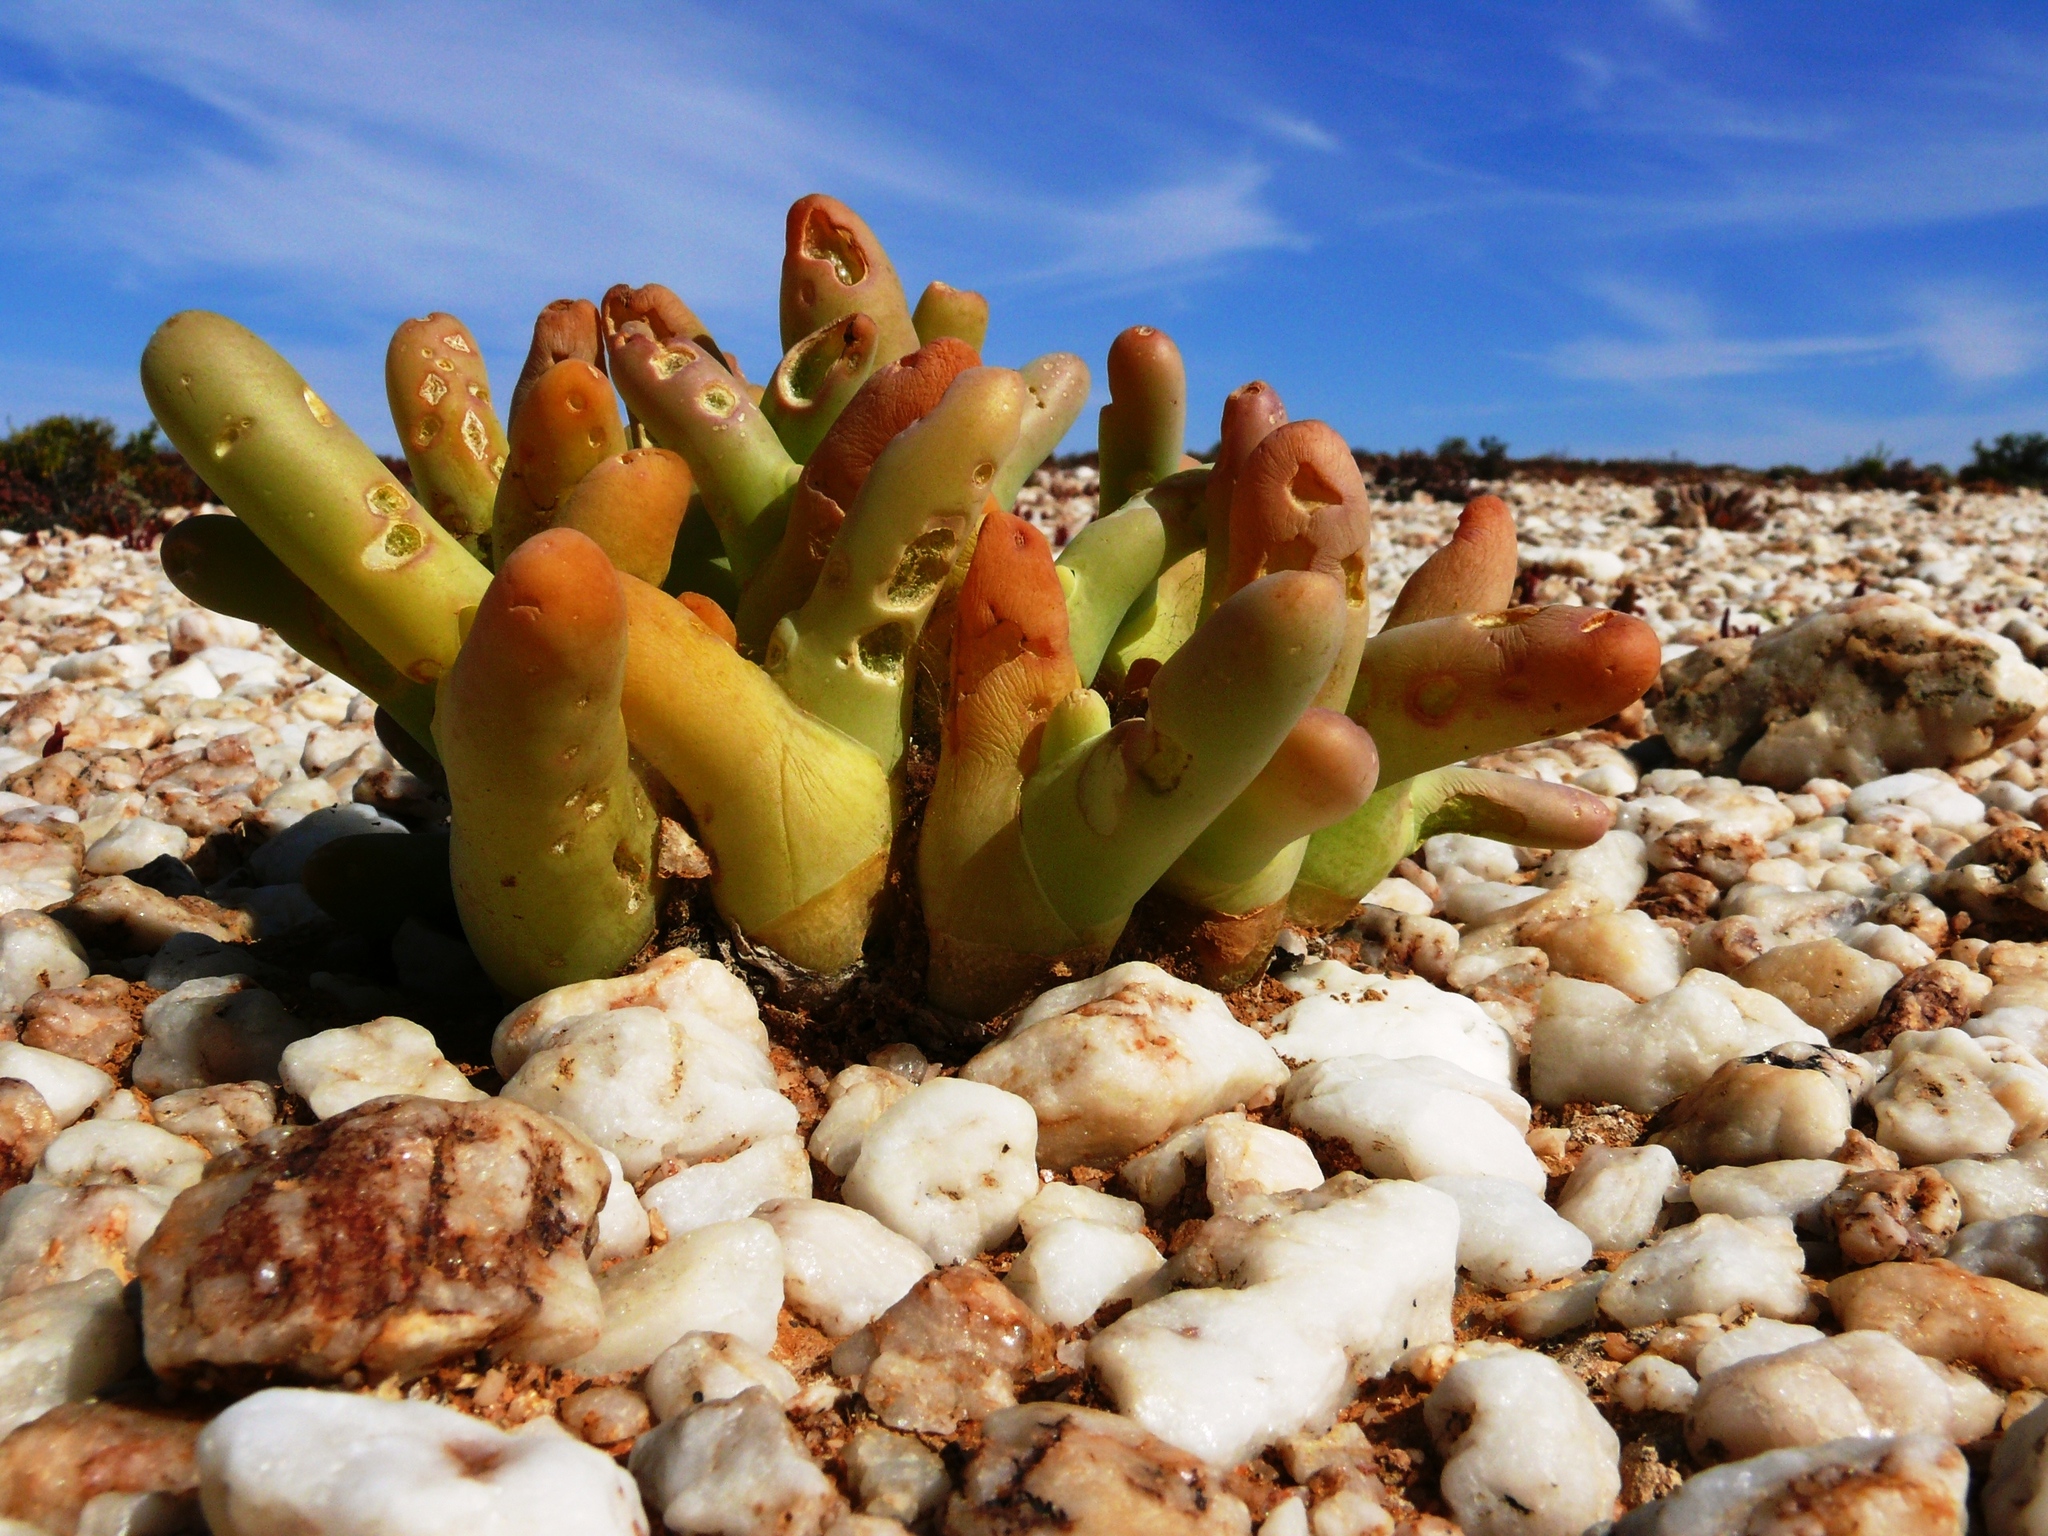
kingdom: Plantae
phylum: Tracheophyta
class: Magnoliopsida
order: Caryophyllales
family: Aizoaceae
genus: Mesembryanthemum
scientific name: Mesembryanthemum digitatum
